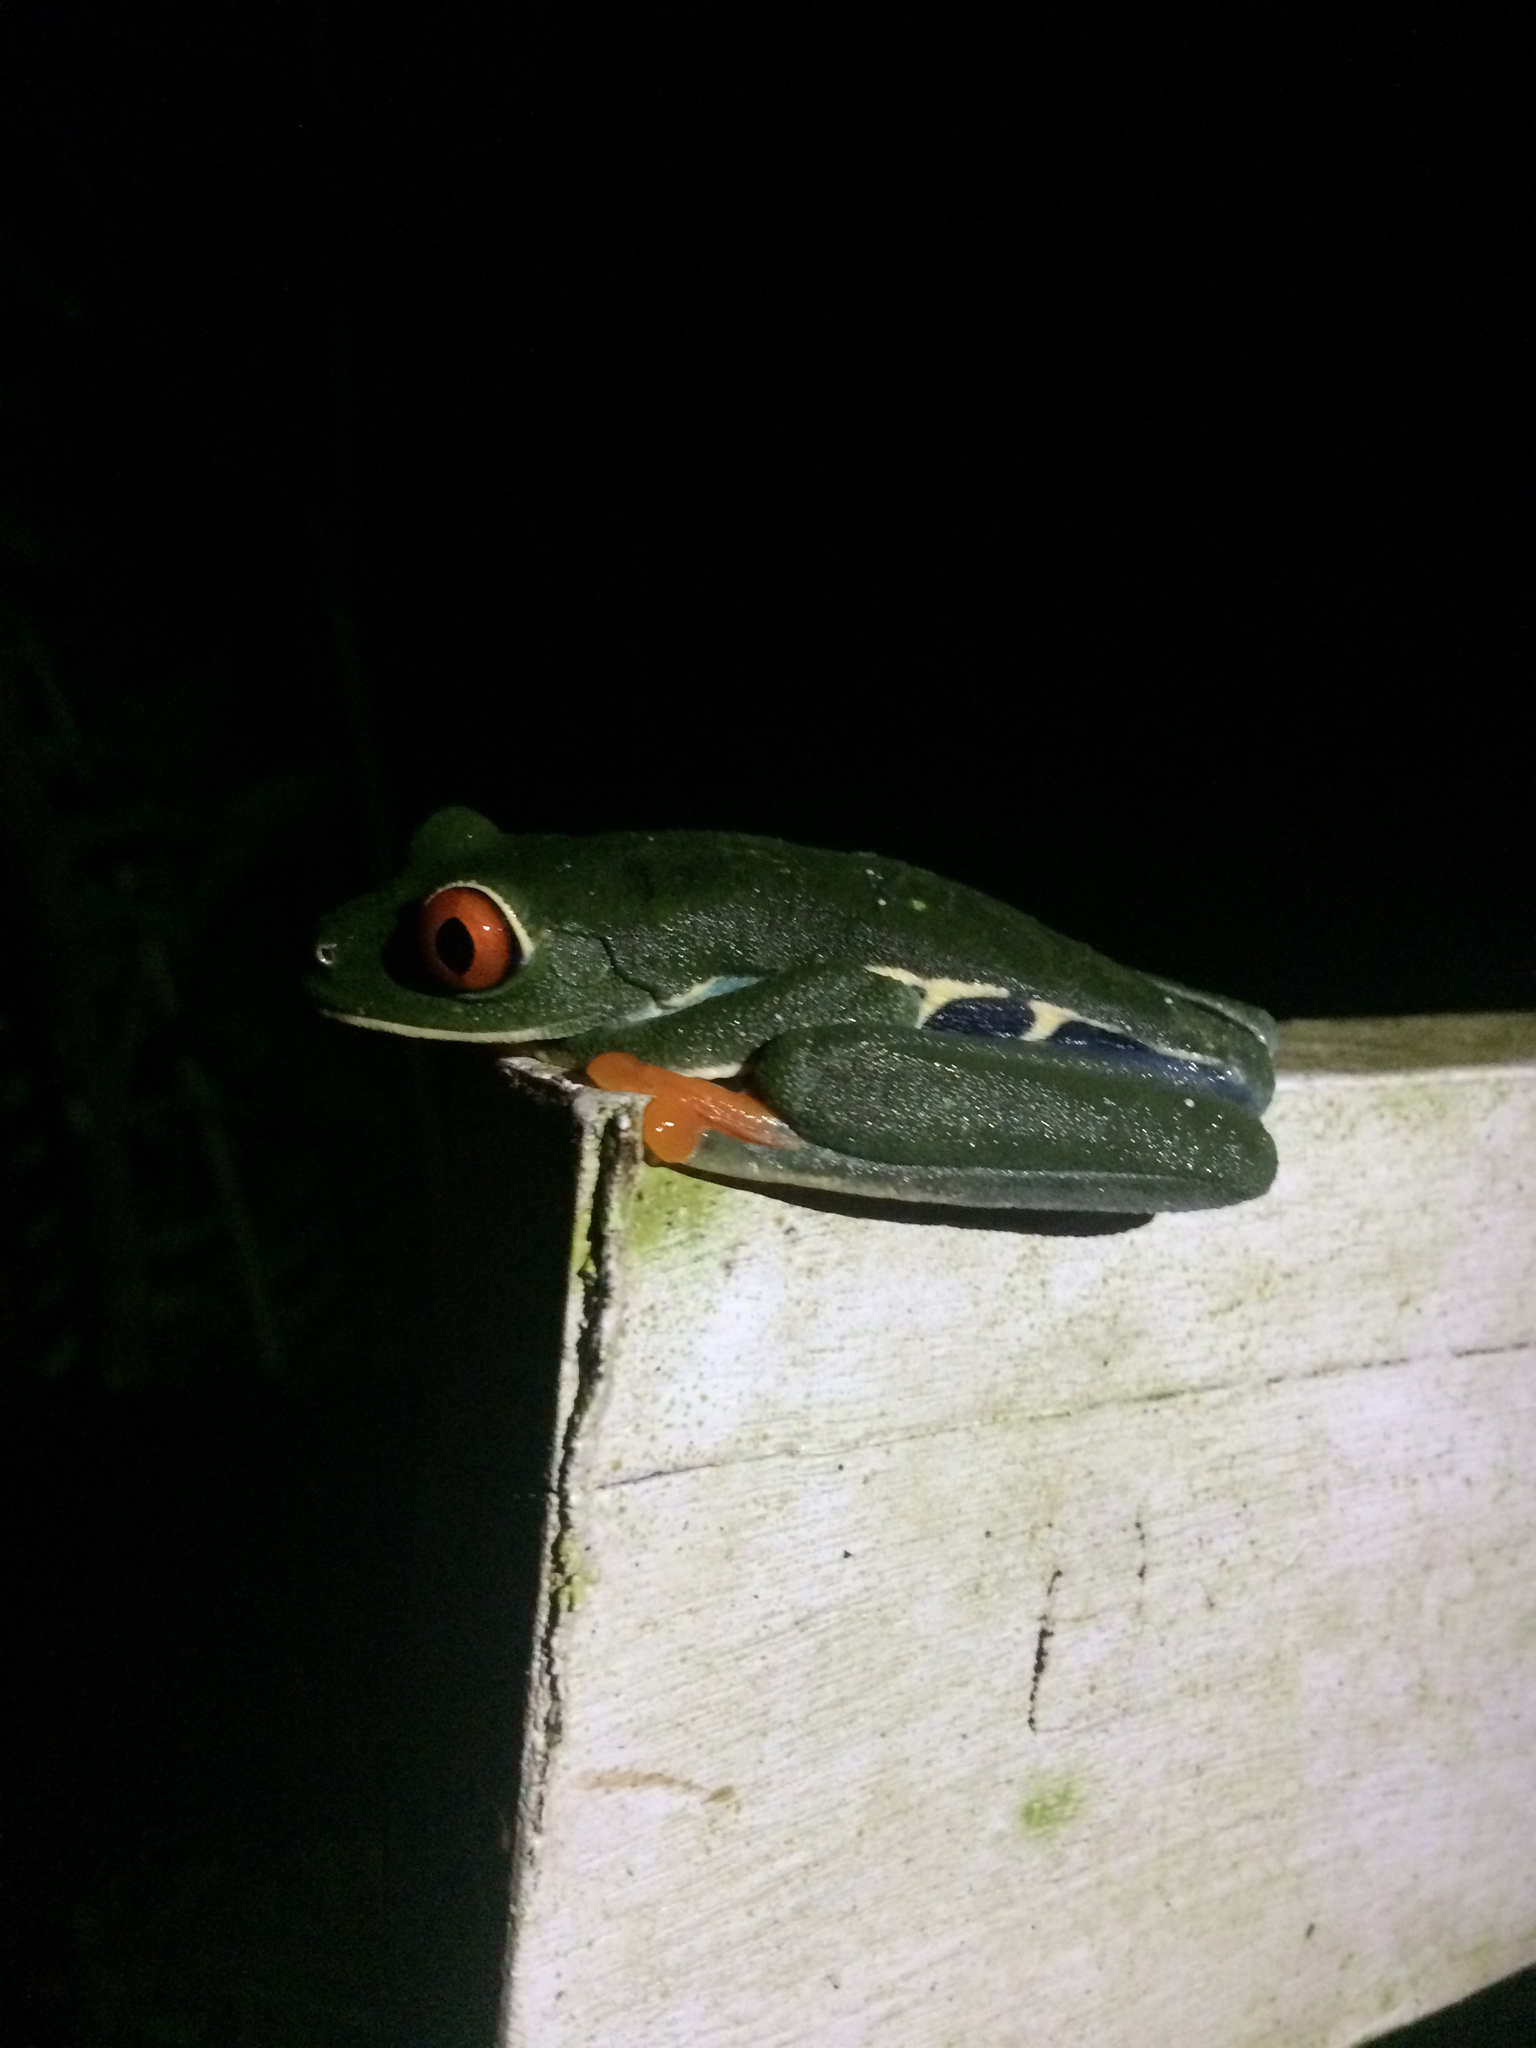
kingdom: Animalia
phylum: Chordata
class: Amphibia
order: Anura
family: Phyllomedusidae
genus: Agalychnis
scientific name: Agalychnis callidryas
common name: Red-eyed treefrog
